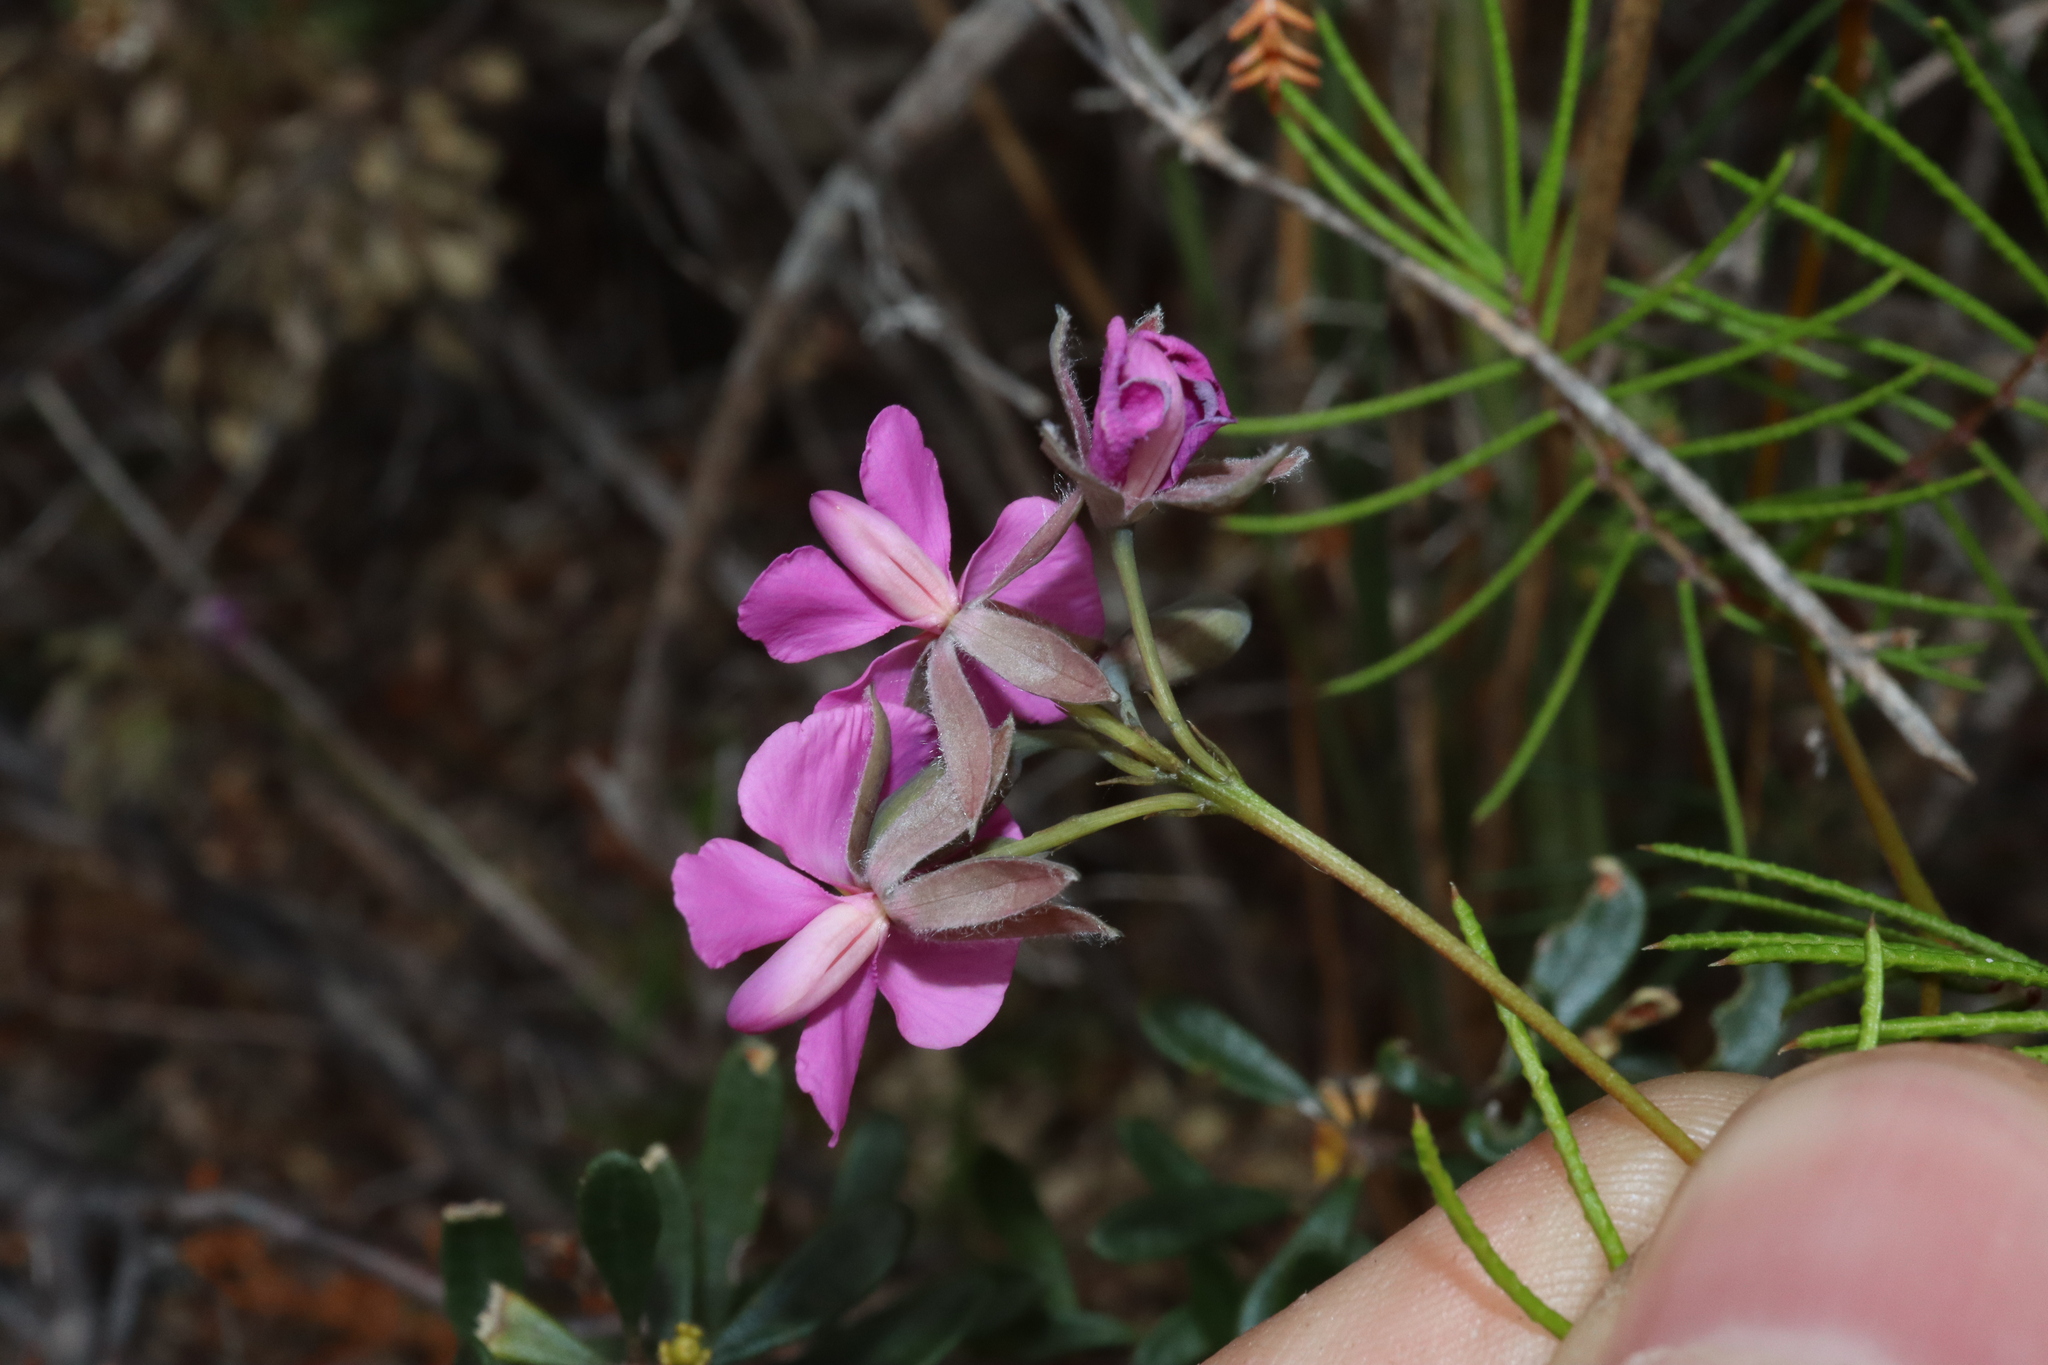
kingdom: Plantae
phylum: Tracheophyta
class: Magnoliopsida
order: Fabales
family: Fabaceae
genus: Gompholobium
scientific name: Gompholobium venustum
